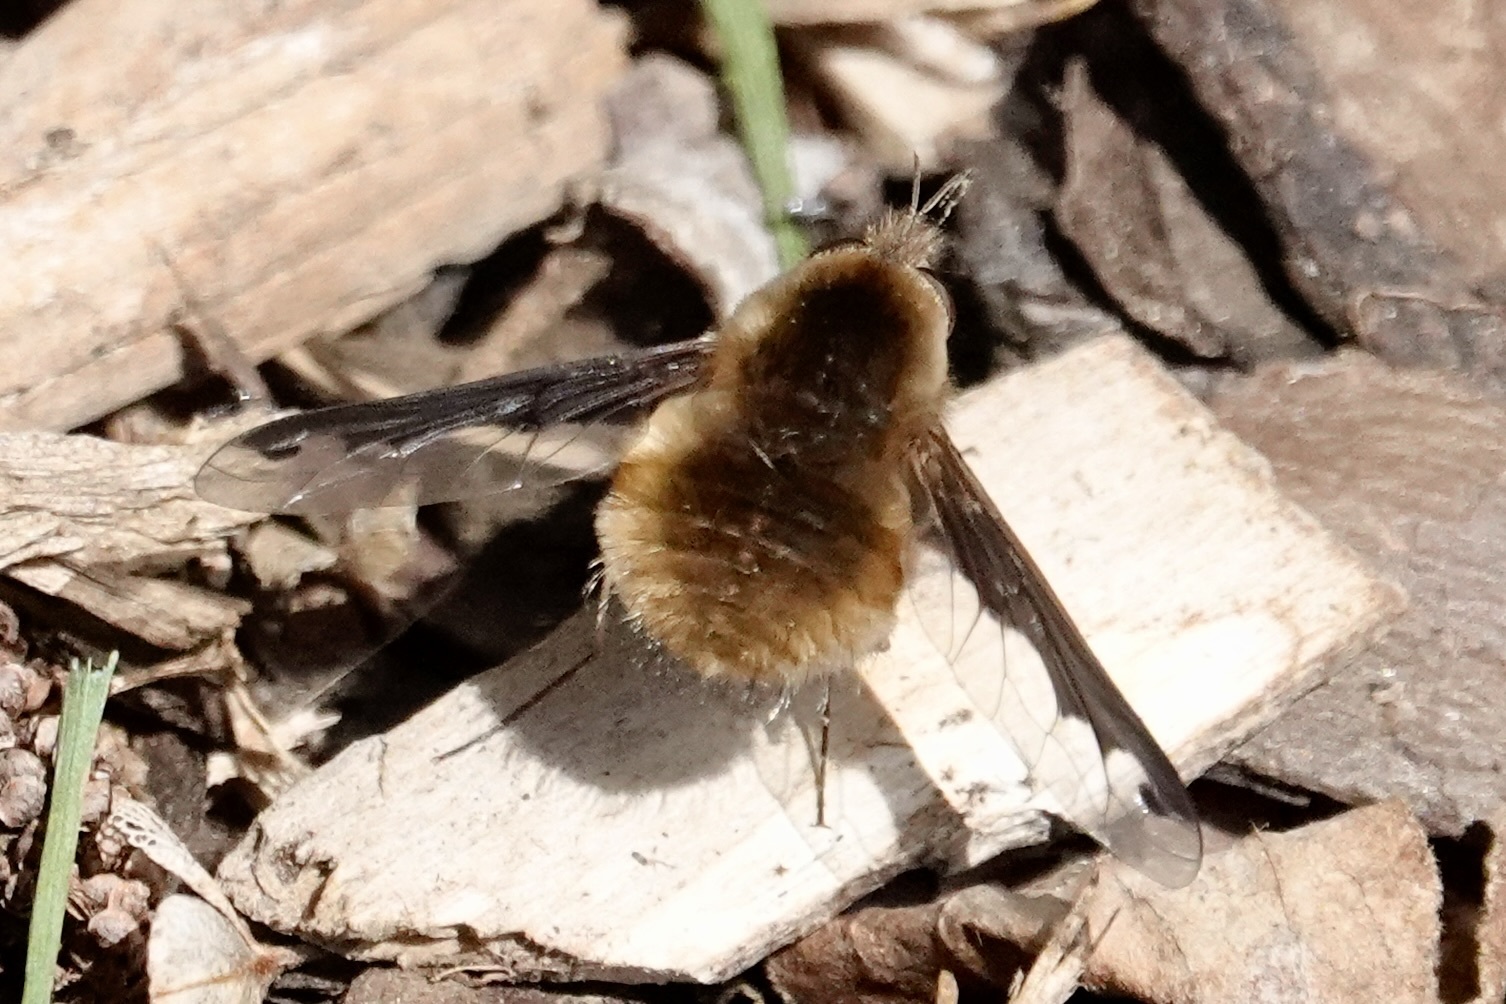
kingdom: Animalia
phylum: Arthropoda
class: Insecta
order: Diptera
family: Bombyliidae
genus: Bombylius
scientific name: Bombylius major
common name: Bee fly
